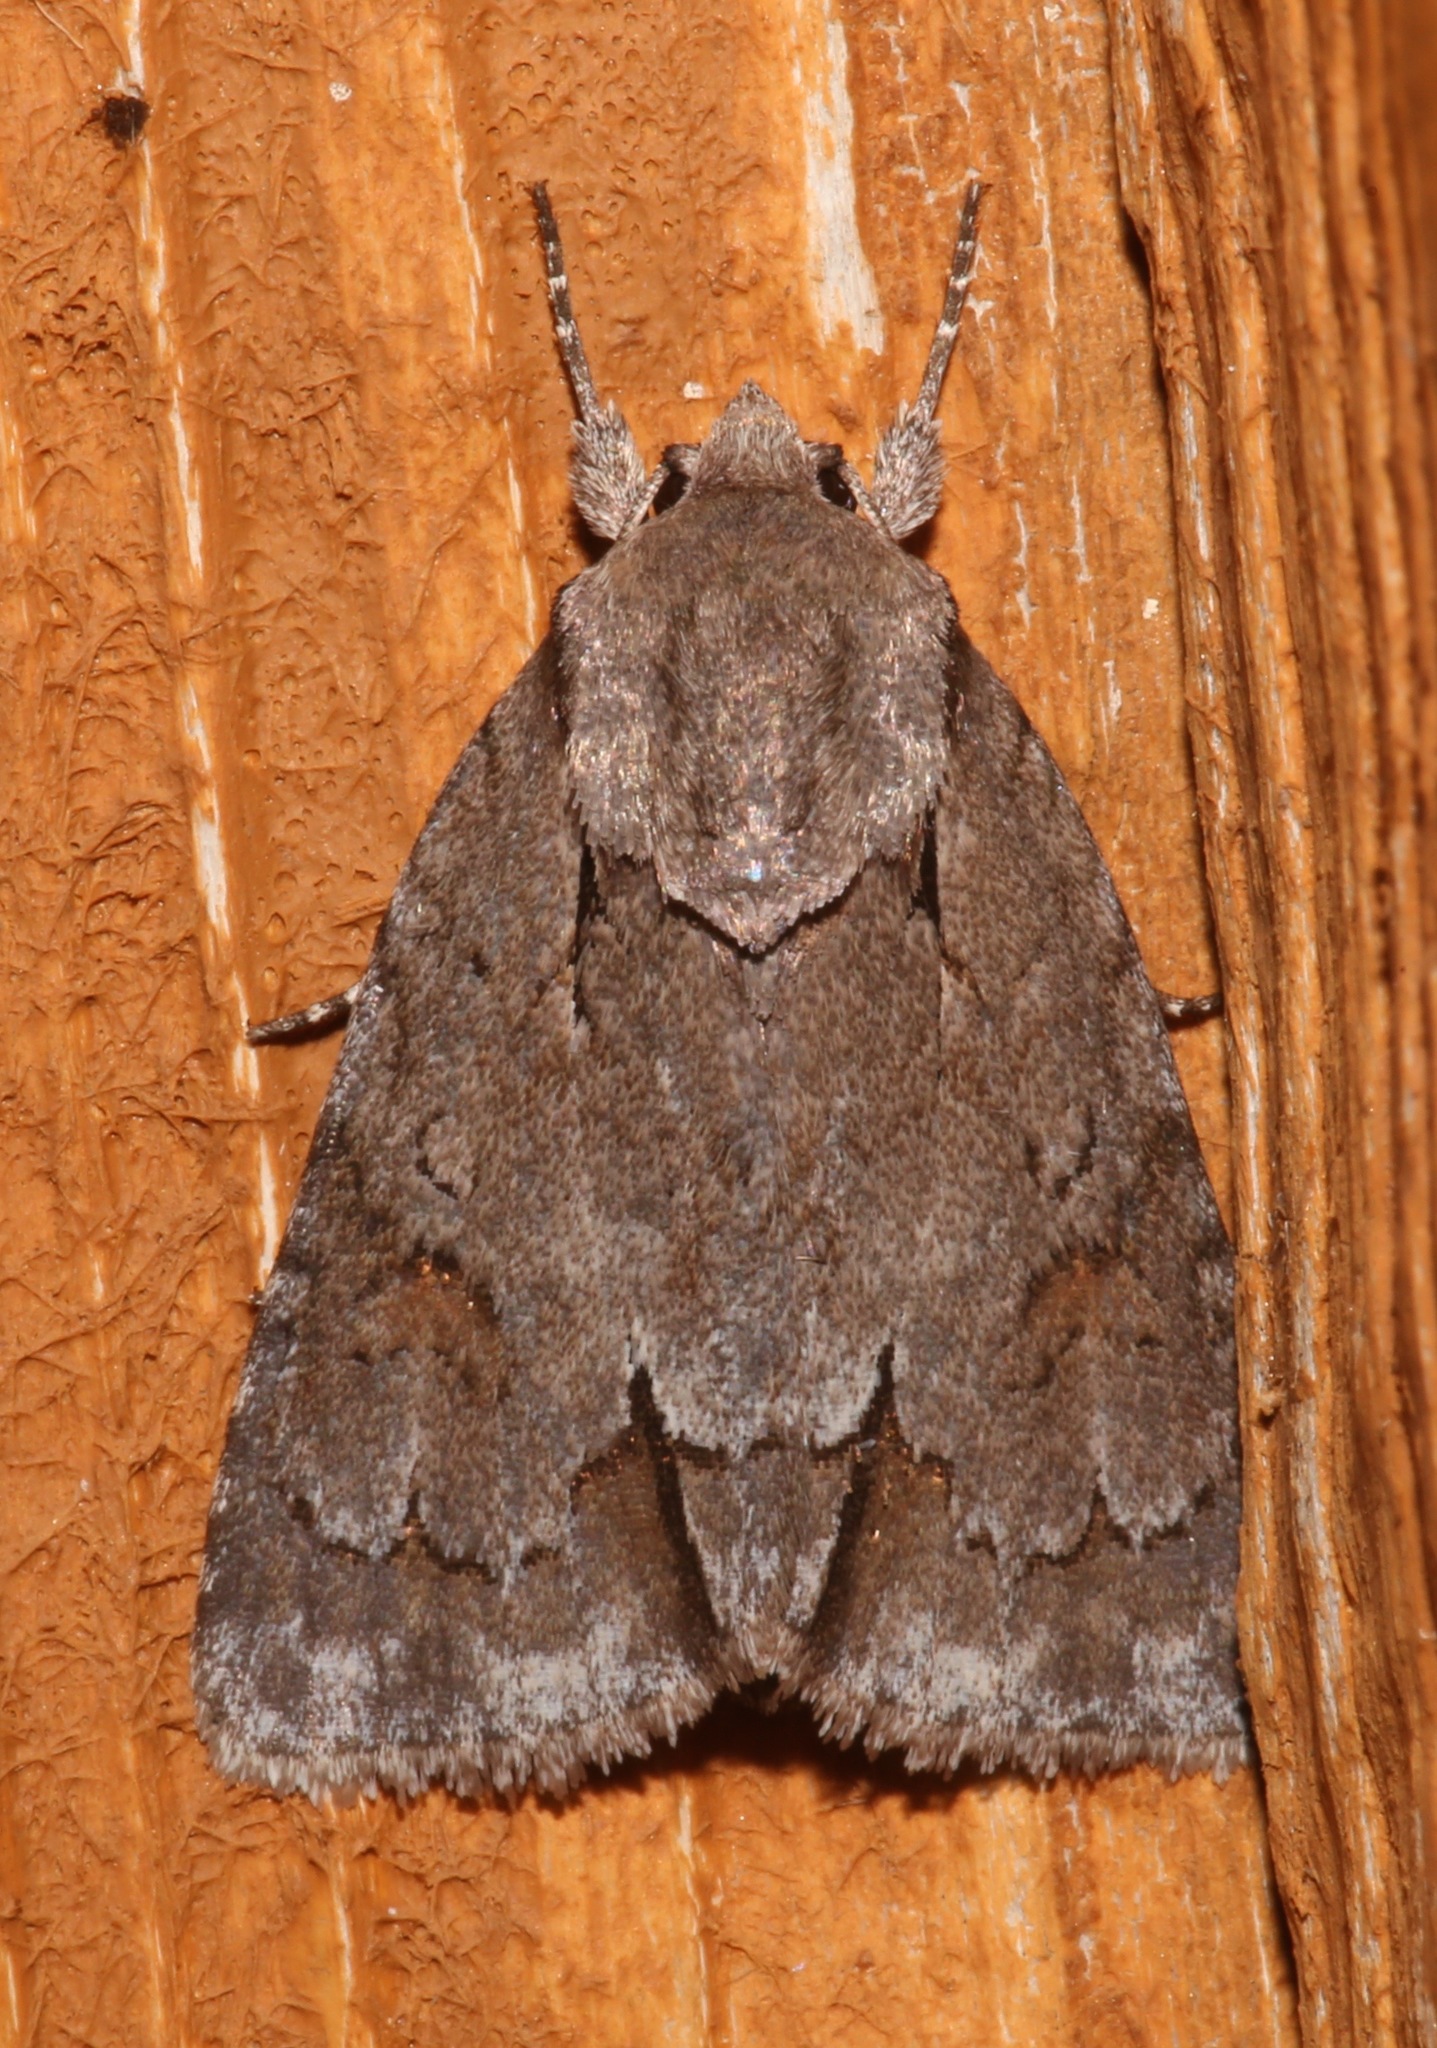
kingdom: Animalia
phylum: Arthropoda
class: Insecta
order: Lepidoptera
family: Noctuidae
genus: Acronicta
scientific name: Acronicta tritona
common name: Triton dagger
